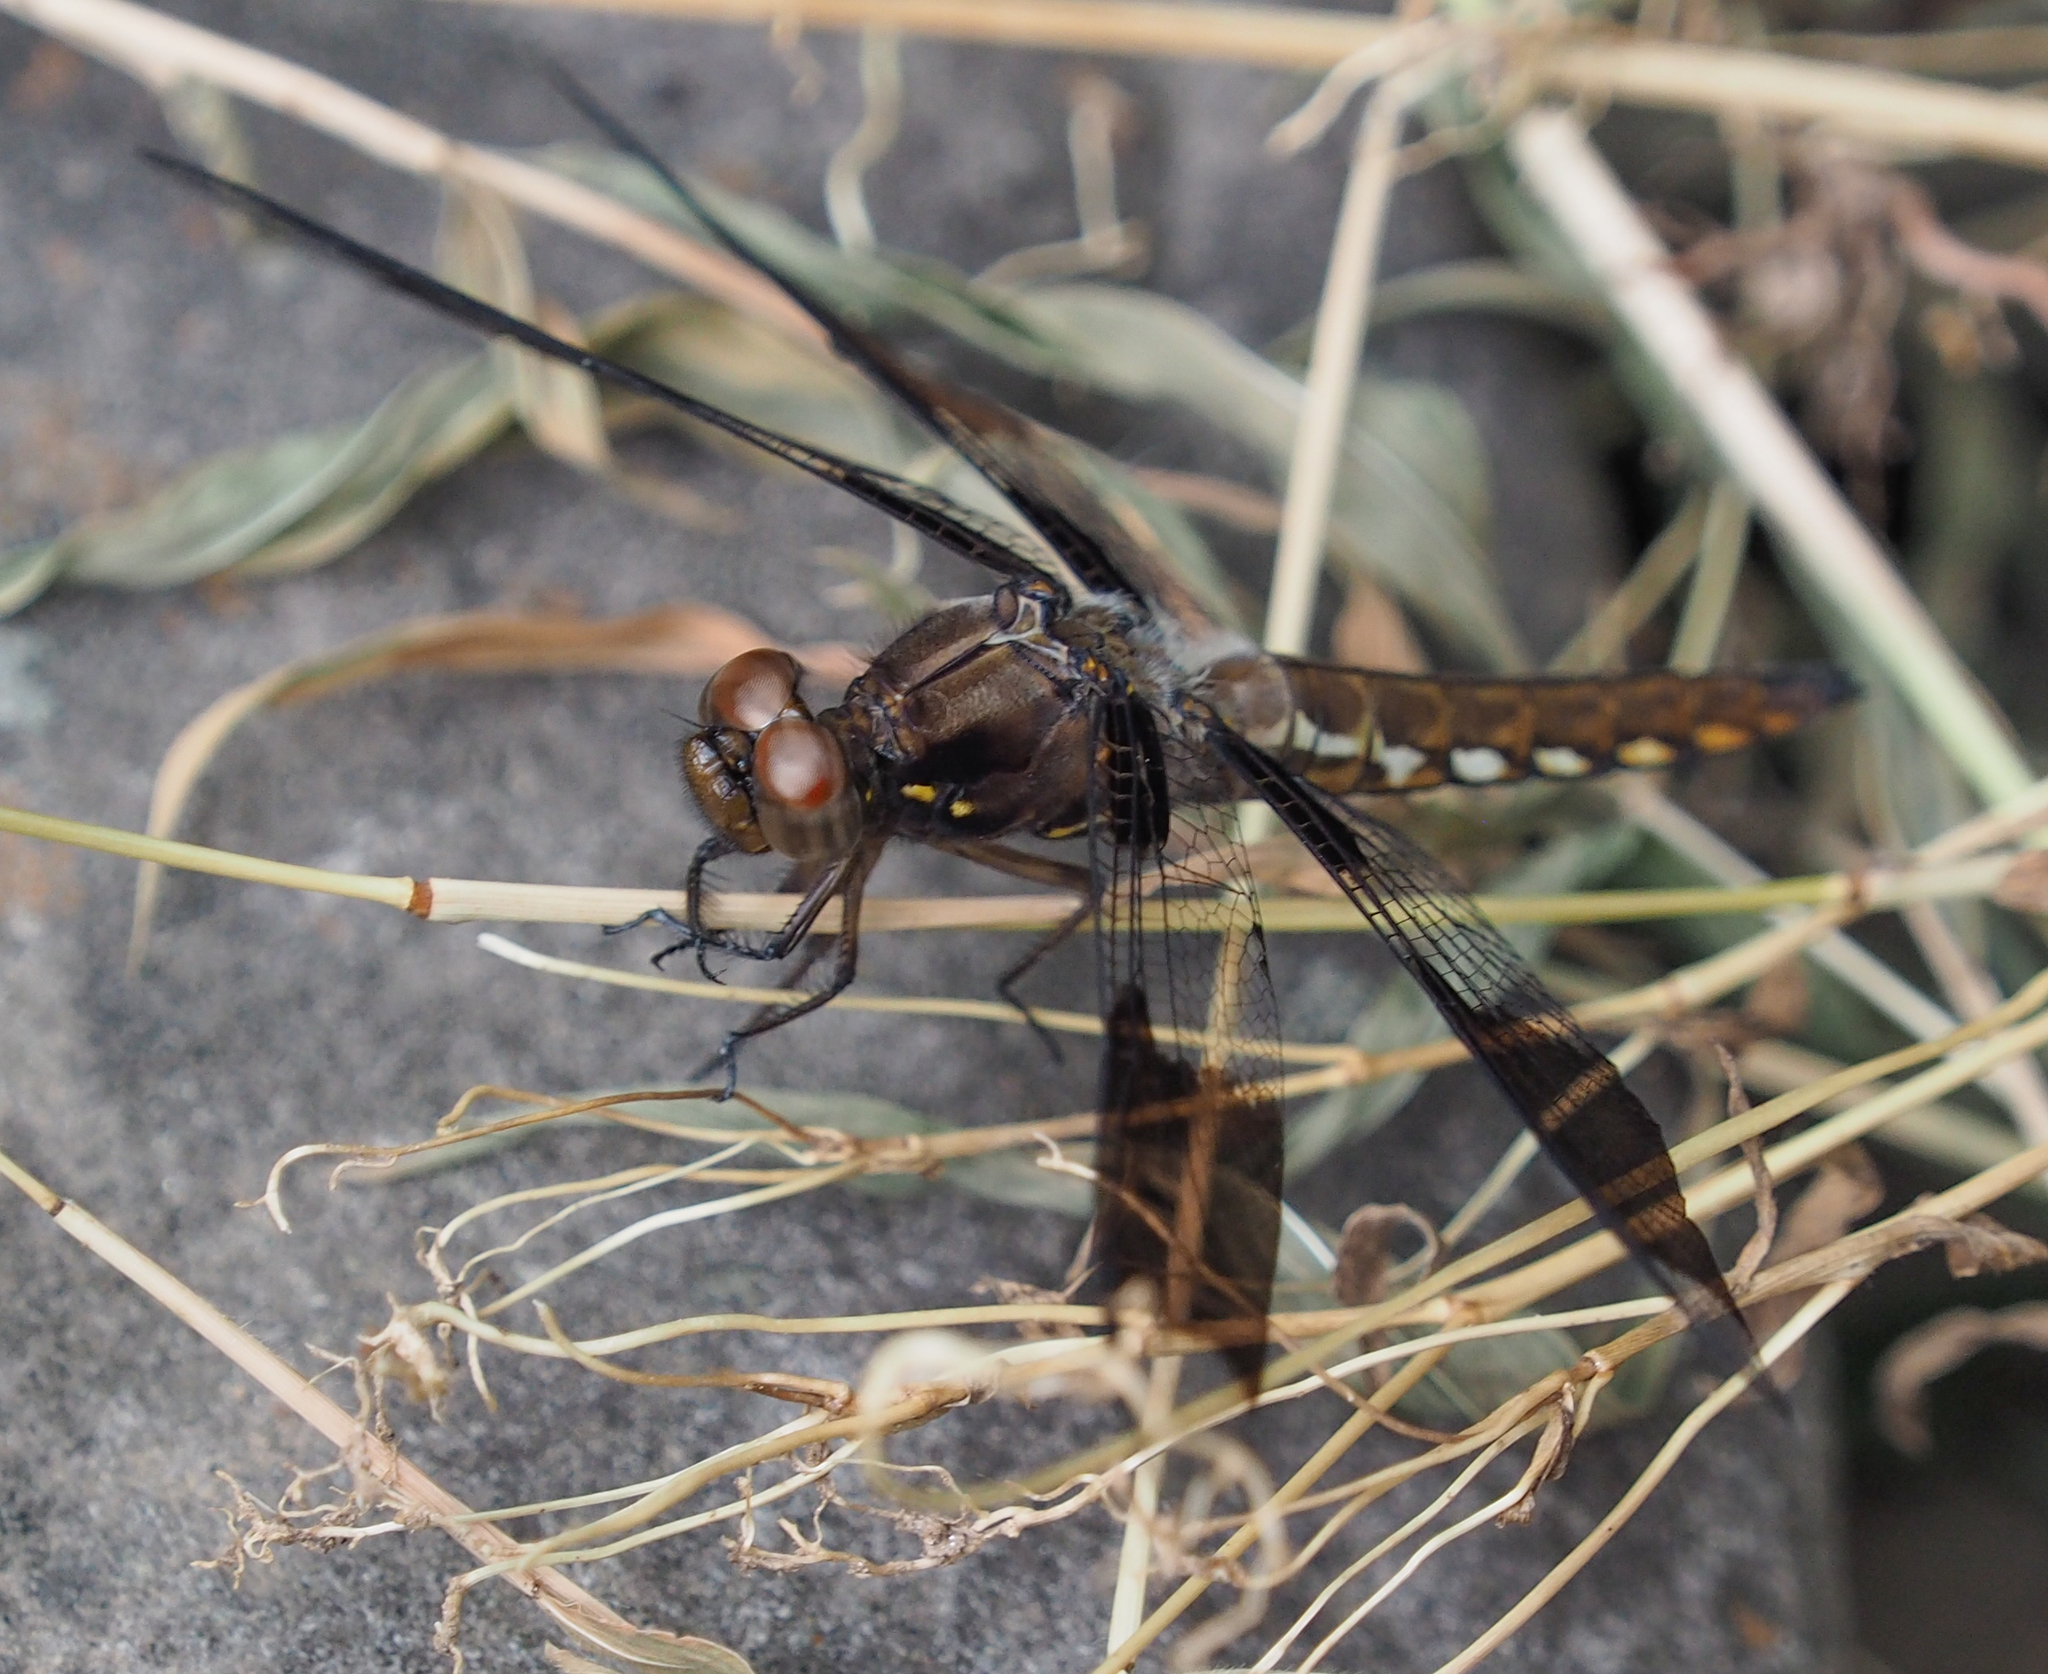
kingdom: Animalia
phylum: Arthropoda
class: Insecta
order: Odonata
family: Libellulidae
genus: Plathemis
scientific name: Plathemis lydia
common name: Common whitetail
